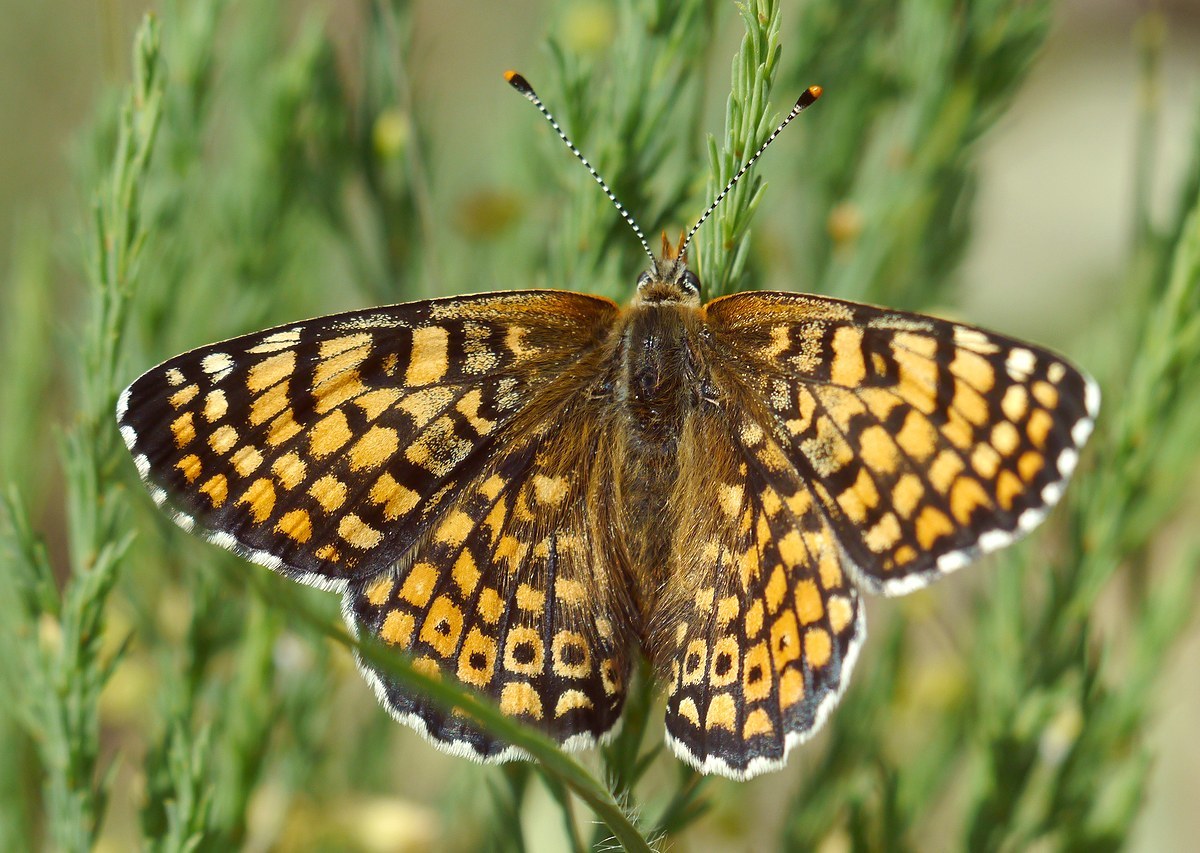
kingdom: Animalia
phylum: Arthropoda
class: Insecta
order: Lepidoptera
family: Nymphalidae
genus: Melitaea
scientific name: Melitaea cinxia
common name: Glanville fritillary
